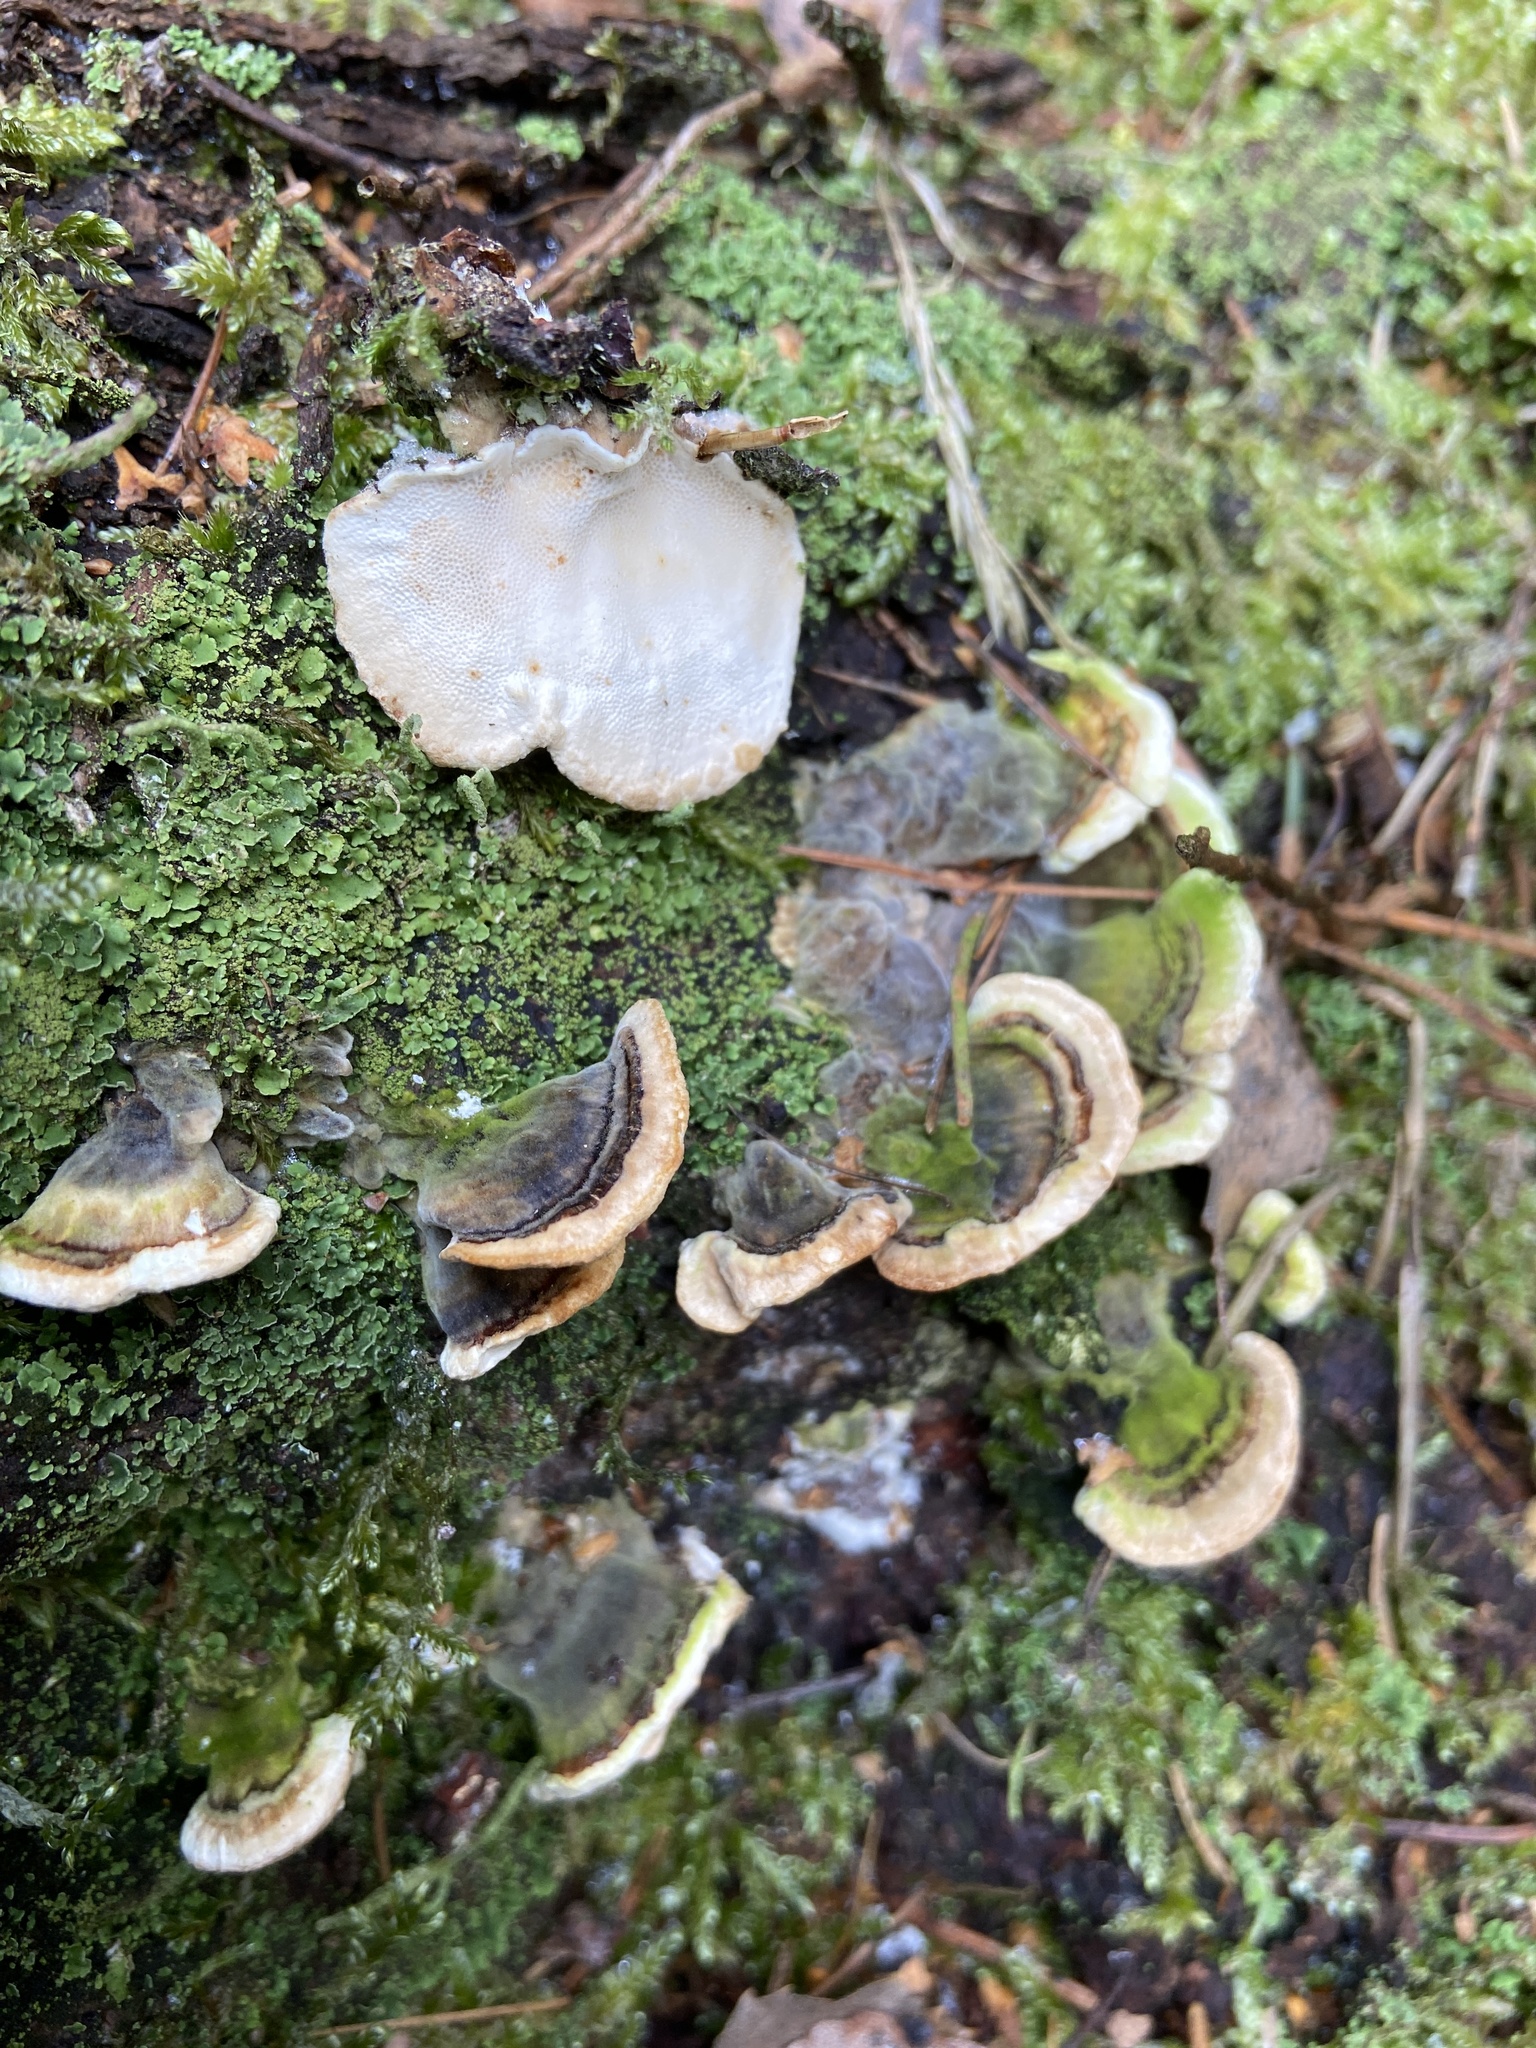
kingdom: Fungi
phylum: Basidiomycota
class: Agaricomycetes
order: Polyporales
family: Polyporaceae
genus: Trametes
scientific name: Trametes versicolor
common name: Turkeytail
